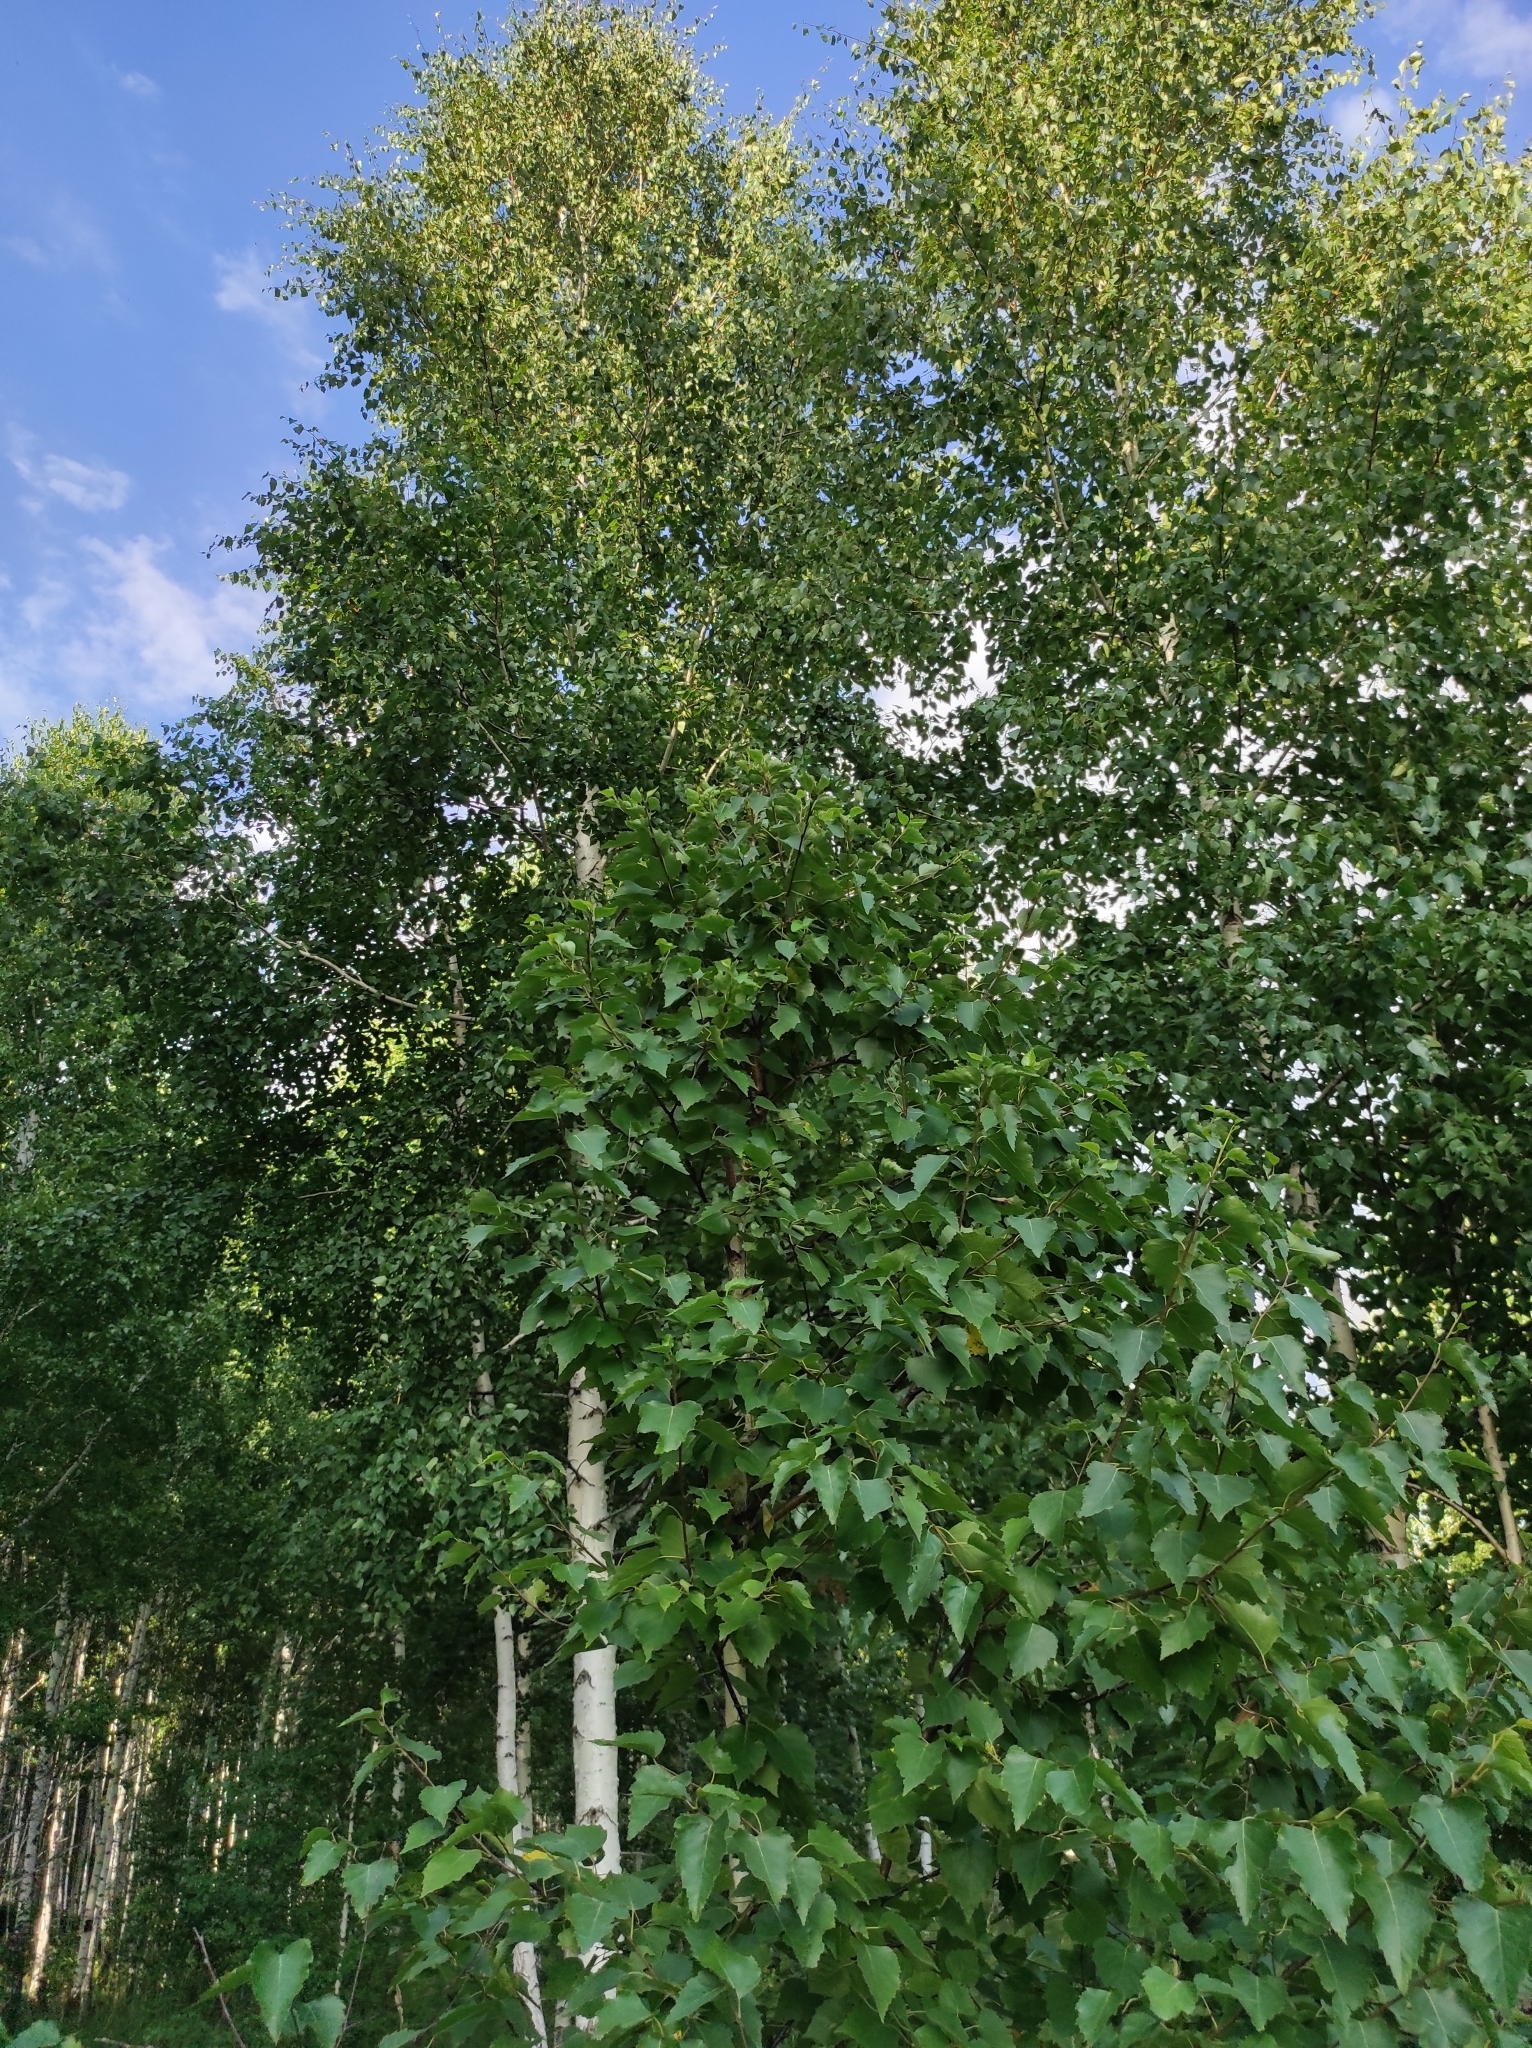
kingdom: Plantae
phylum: Tracheophyta
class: Magnoliopsida
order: Fagales
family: Betulaceae
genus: Betula
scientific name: Betula pendula
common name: Silver birch
